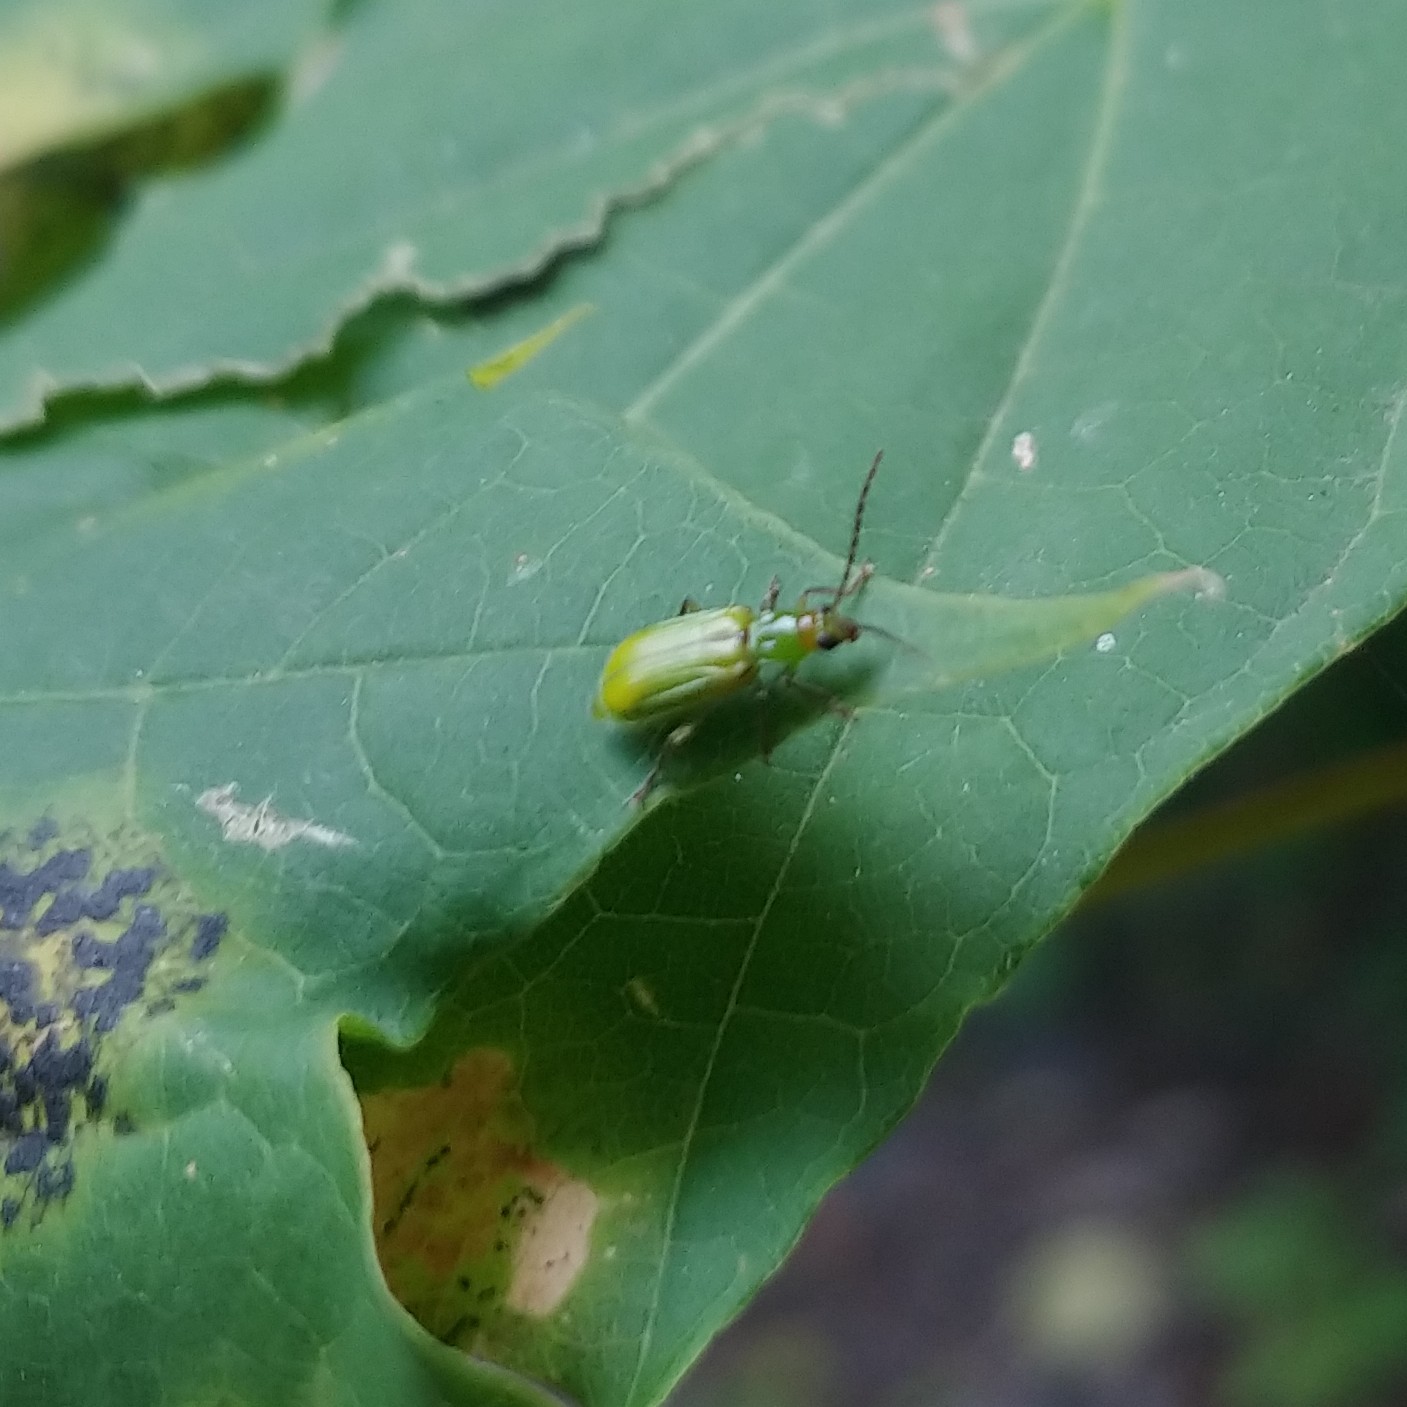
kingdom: Animalia
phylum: Arthropoda
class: Insecta
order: Coleoptera
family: Chrysomelidae
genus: Diabrotica
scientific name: Diabrotica barberi
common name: Northern corn rootworm
